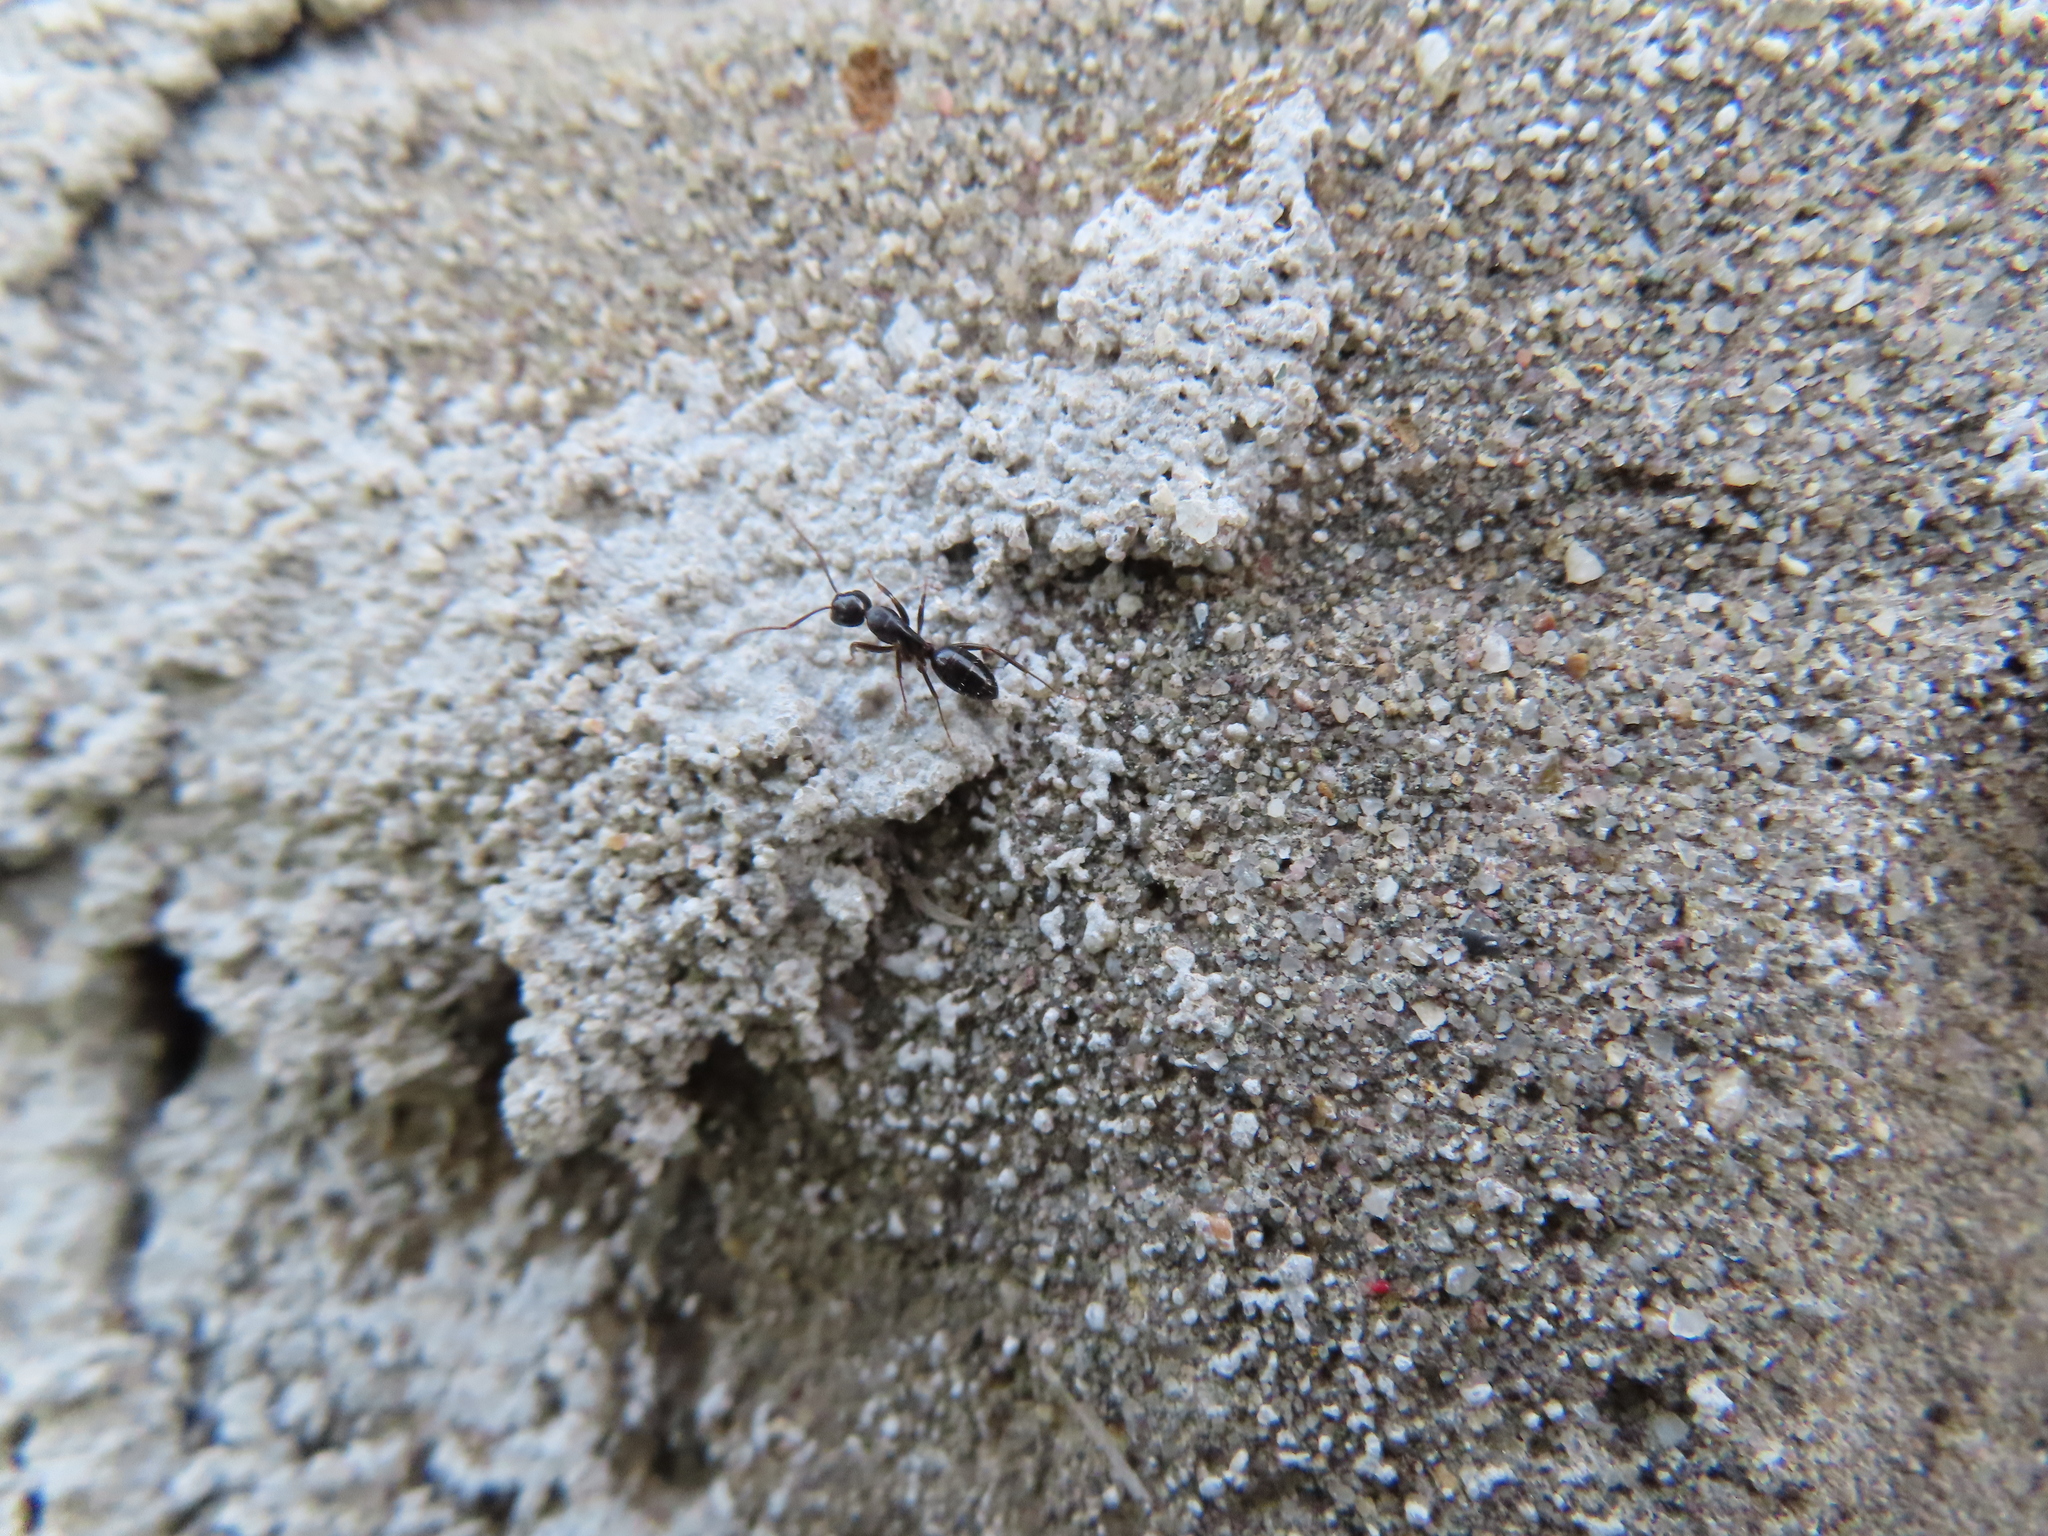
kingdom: Animalia
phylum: Arthropoda
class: Insecta
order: Hymenoptera
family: Formicidae
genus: Camponotus
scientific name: Camponotus nearcticus
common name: Smaller carpenter ant
